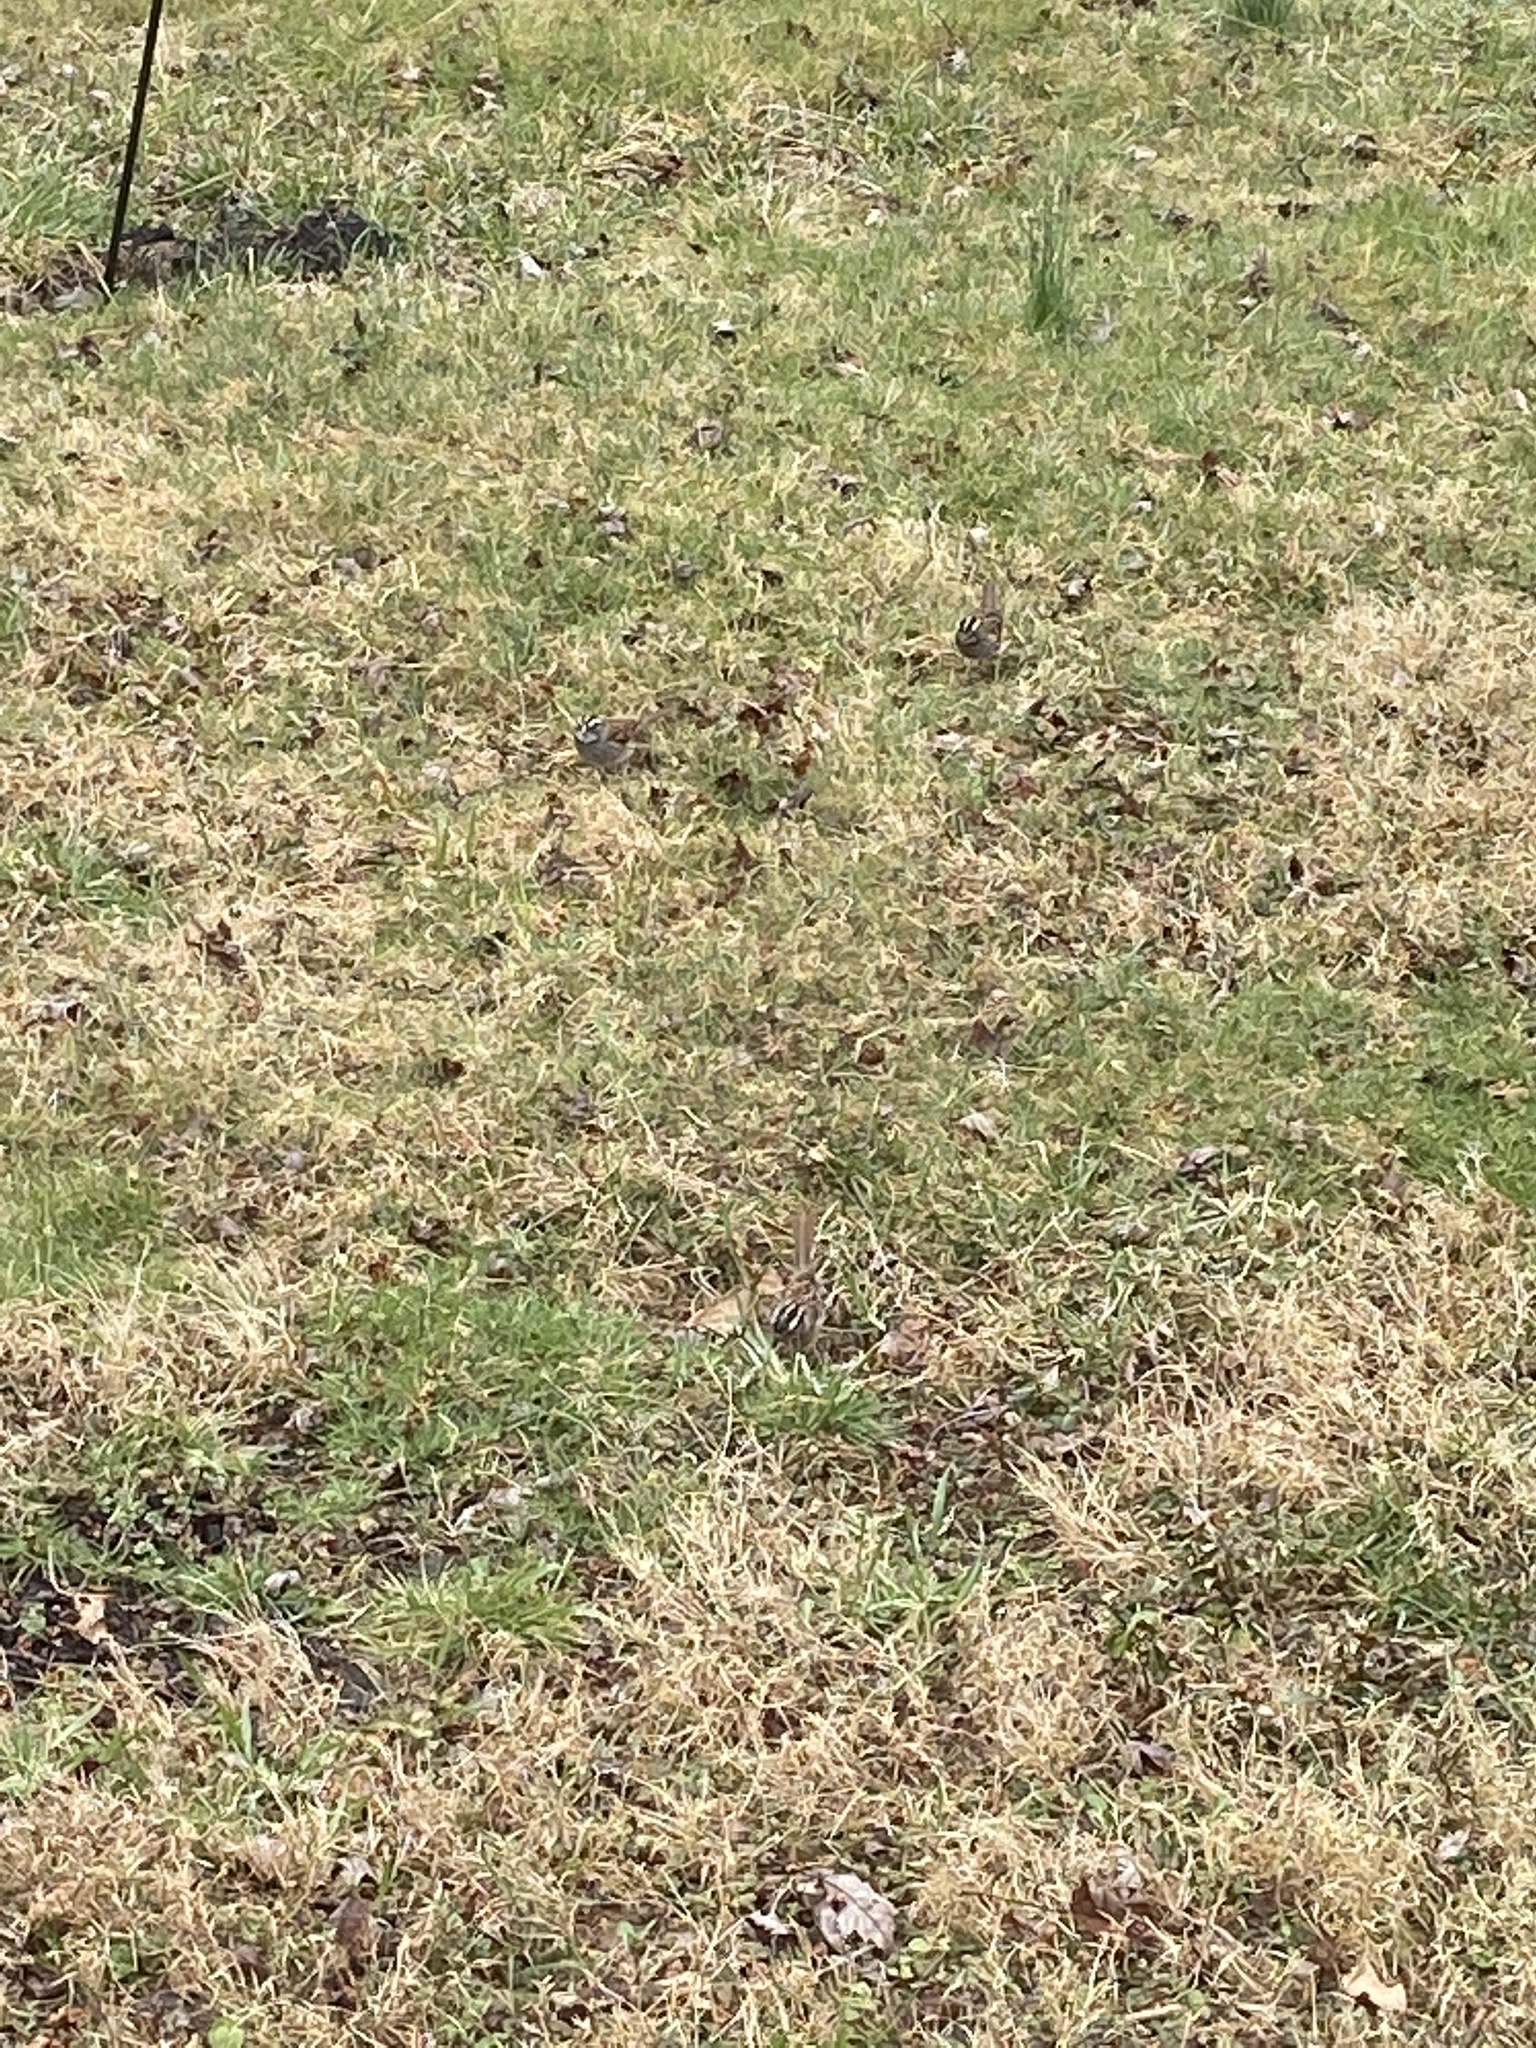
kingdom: Animalia
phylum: Chordata
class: Aves
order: Passeriformes
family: Passerellidae
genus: Zonotrichia
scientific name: Zonotrichia albicollis
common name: White-throated sparrow
